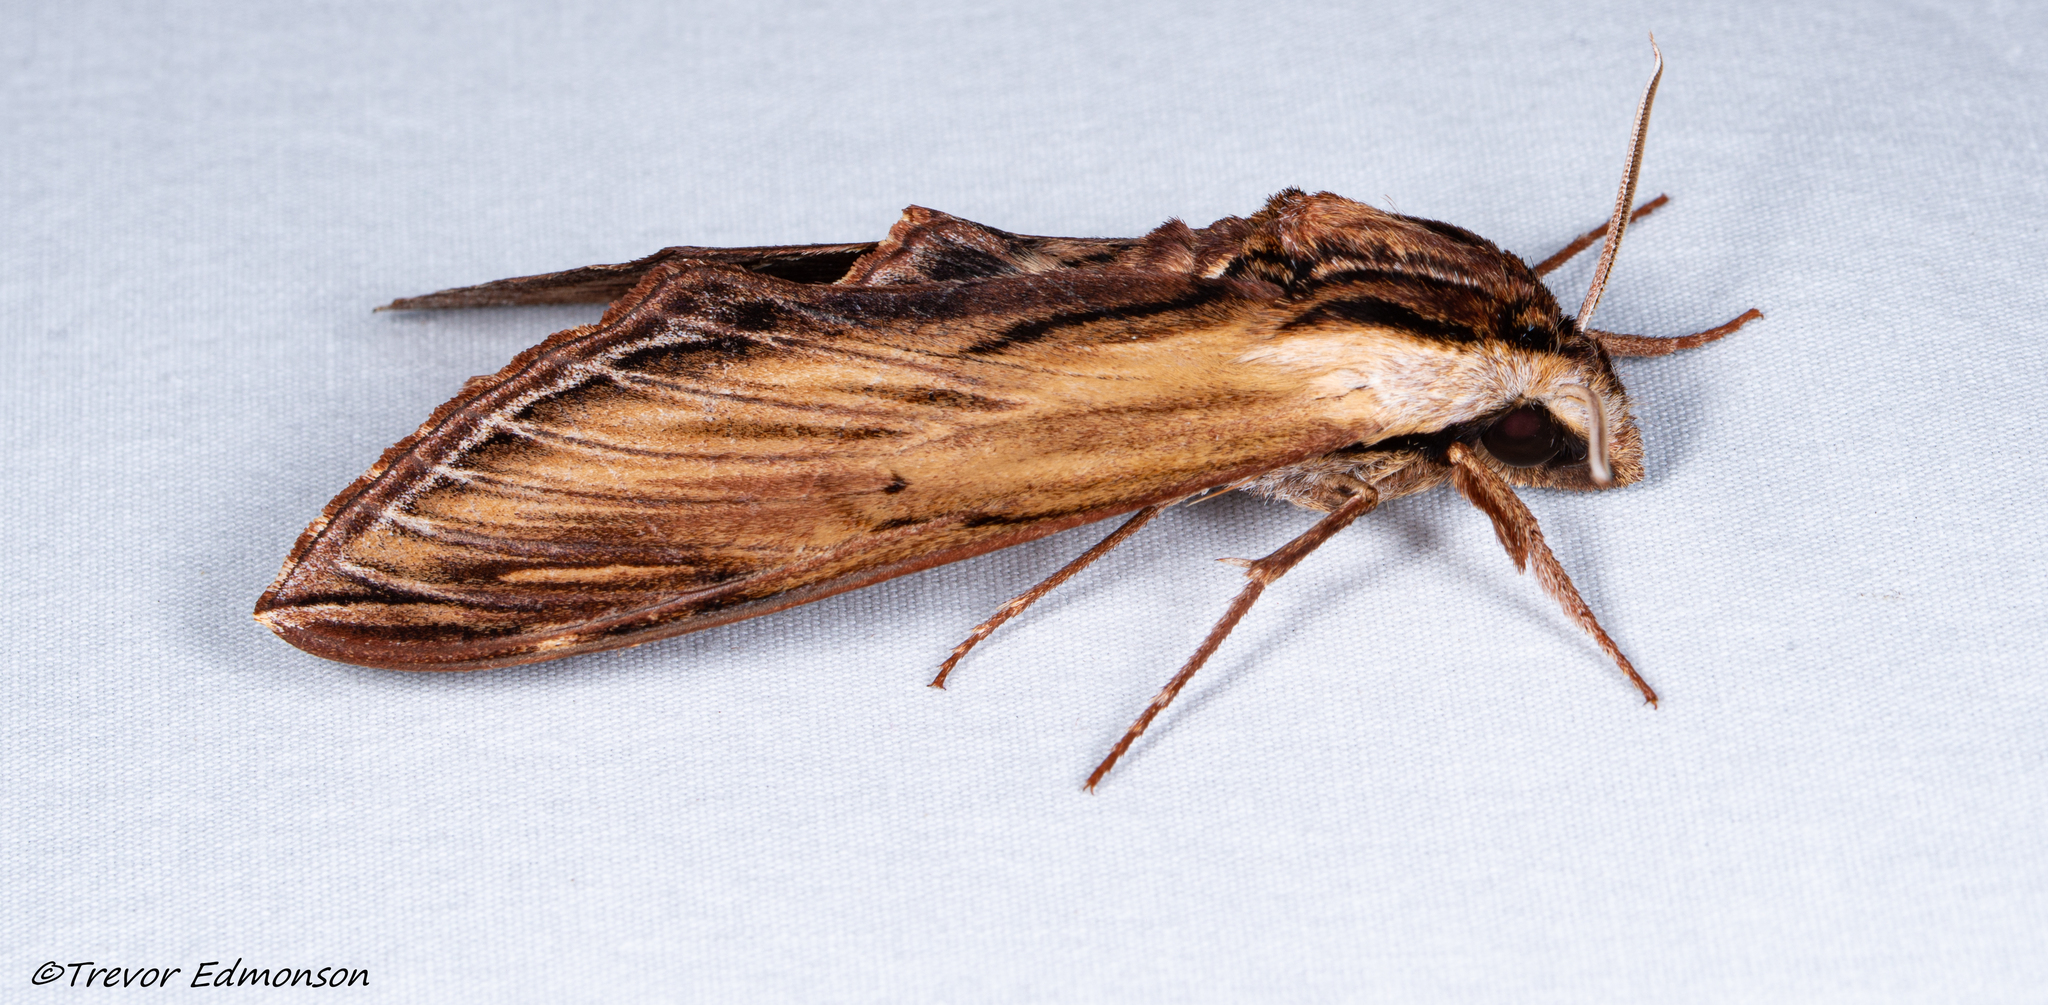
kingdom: Animalia
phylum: Arthropoda
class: Insecta
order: Lepidoptera
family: Sphingidae
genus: Sphinx
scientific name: Sphinx kalmiae
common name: Laurel sphinx
